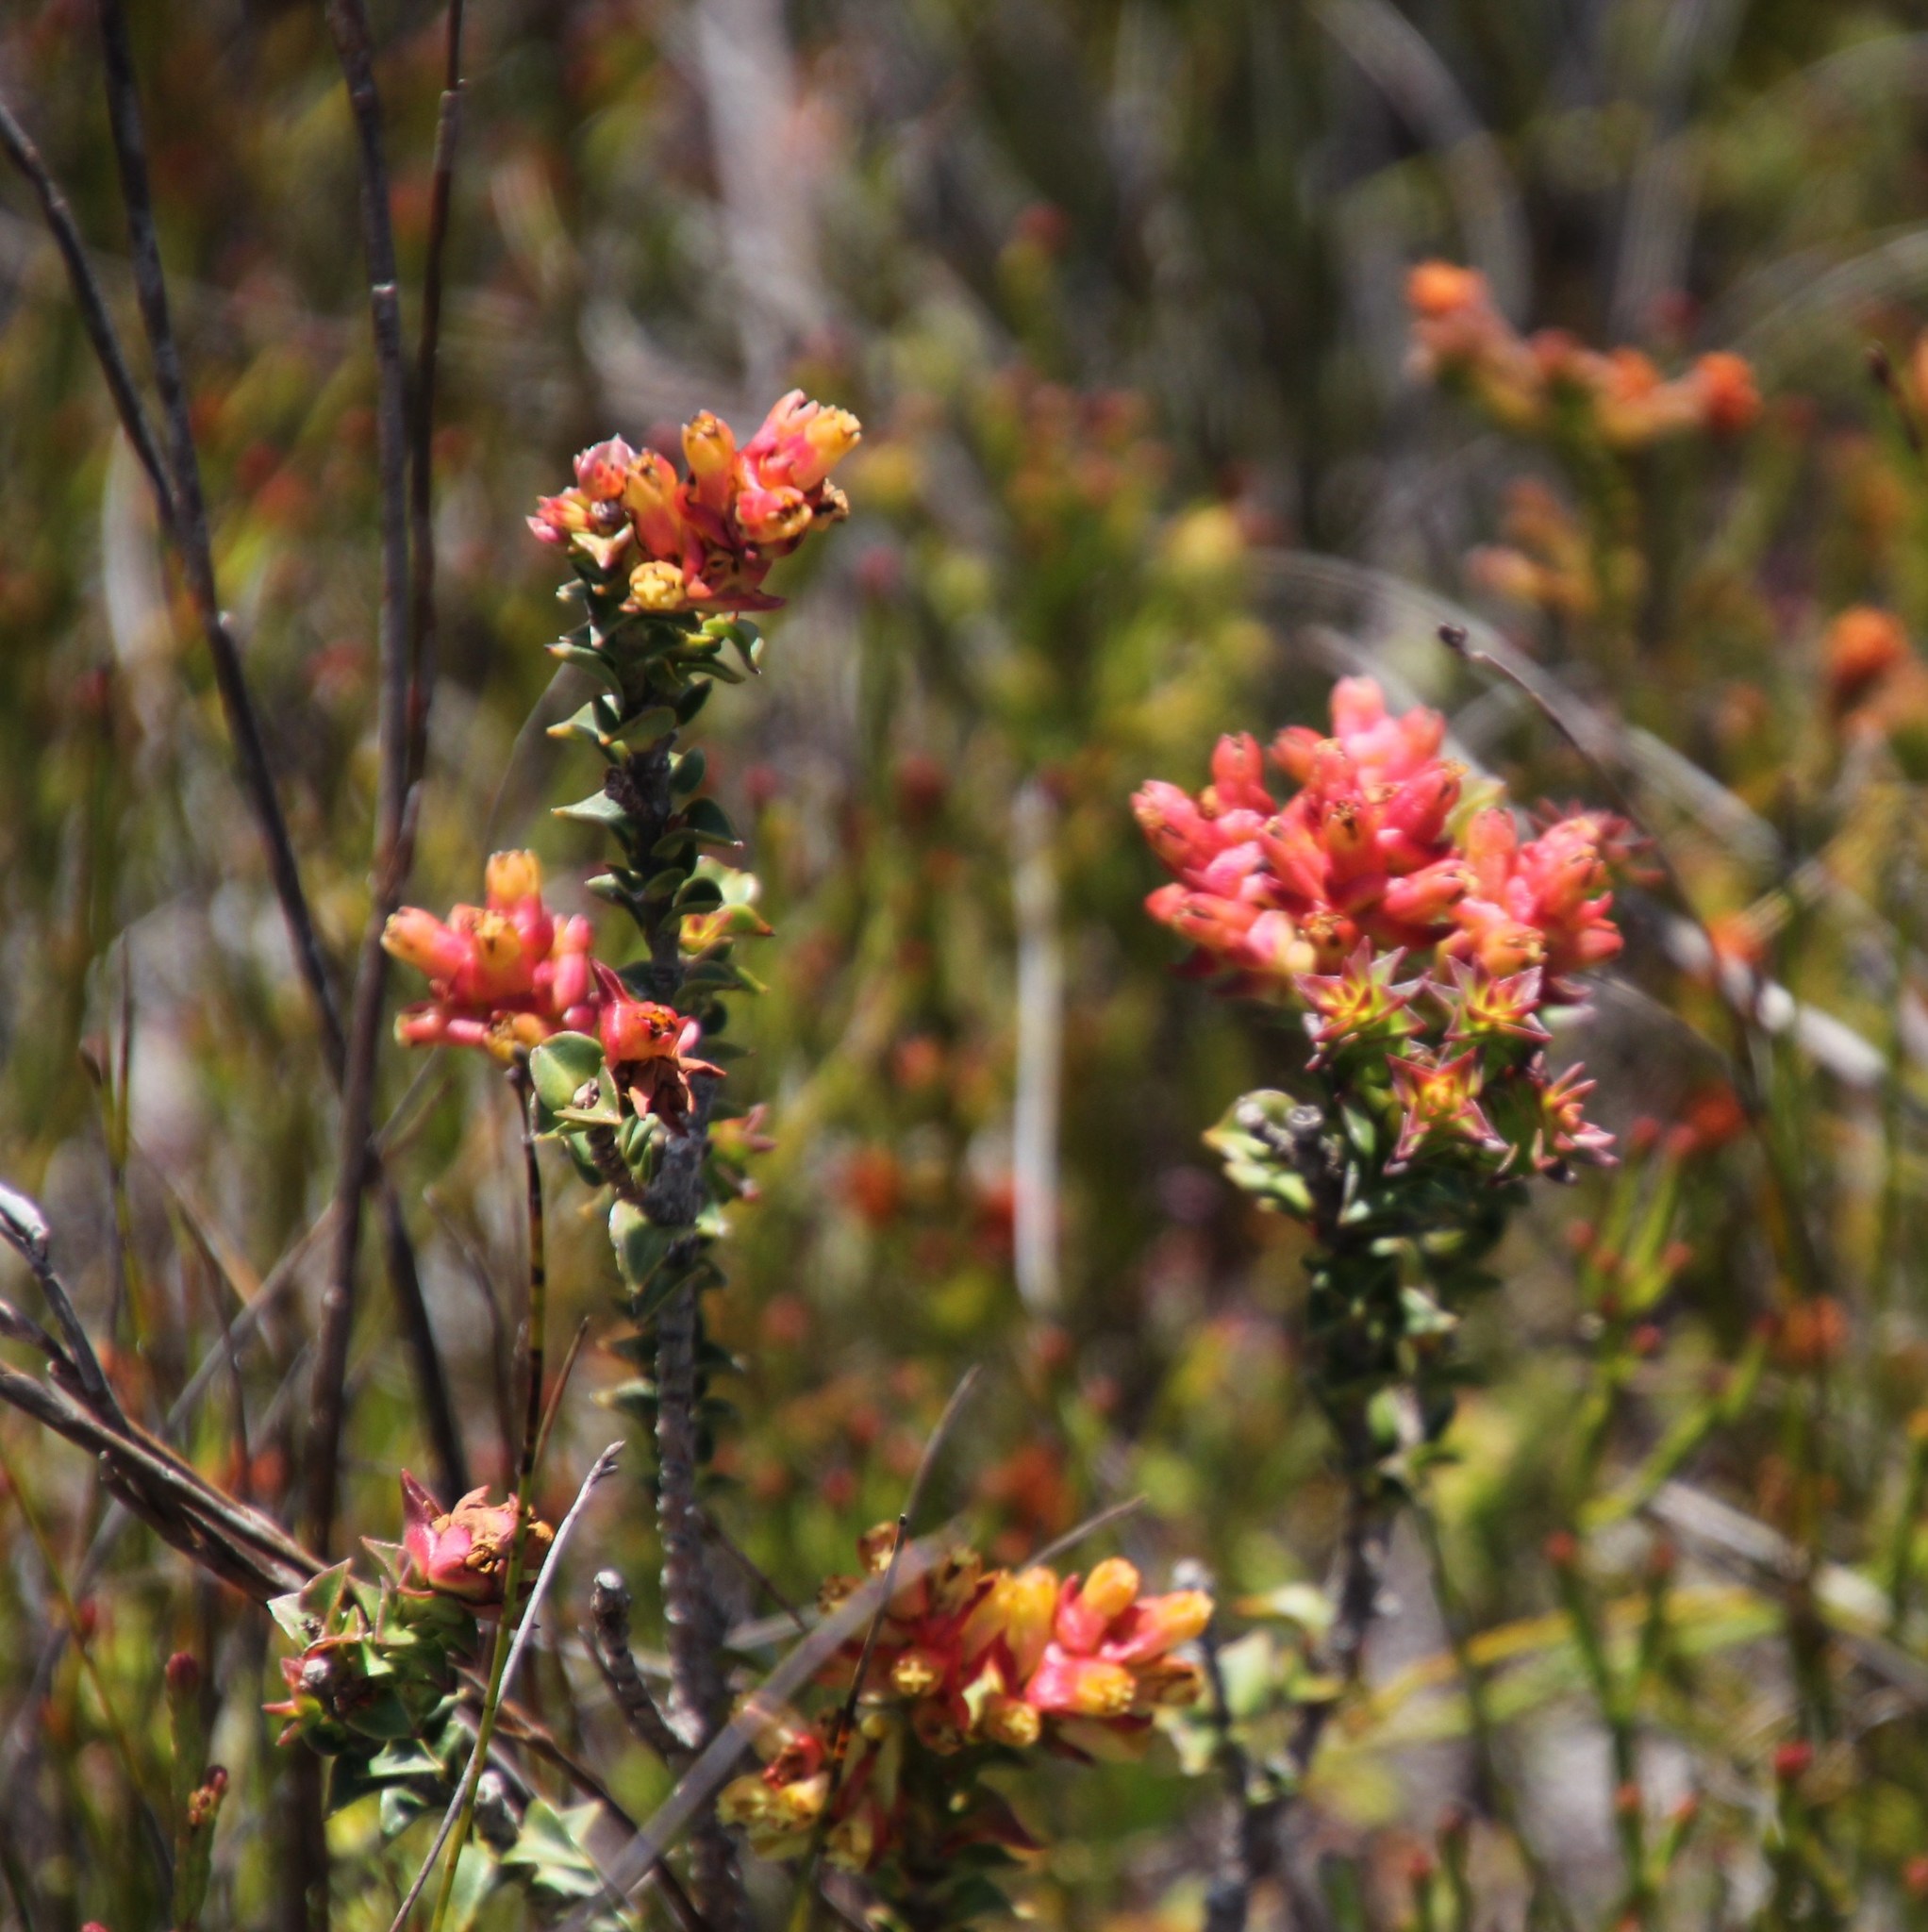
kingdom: Plantae
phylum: Tracheophyta
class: Magnoliopsida
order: Myrtales
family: Penaeaceae
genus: Penaea
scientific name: Penaea mucronata
